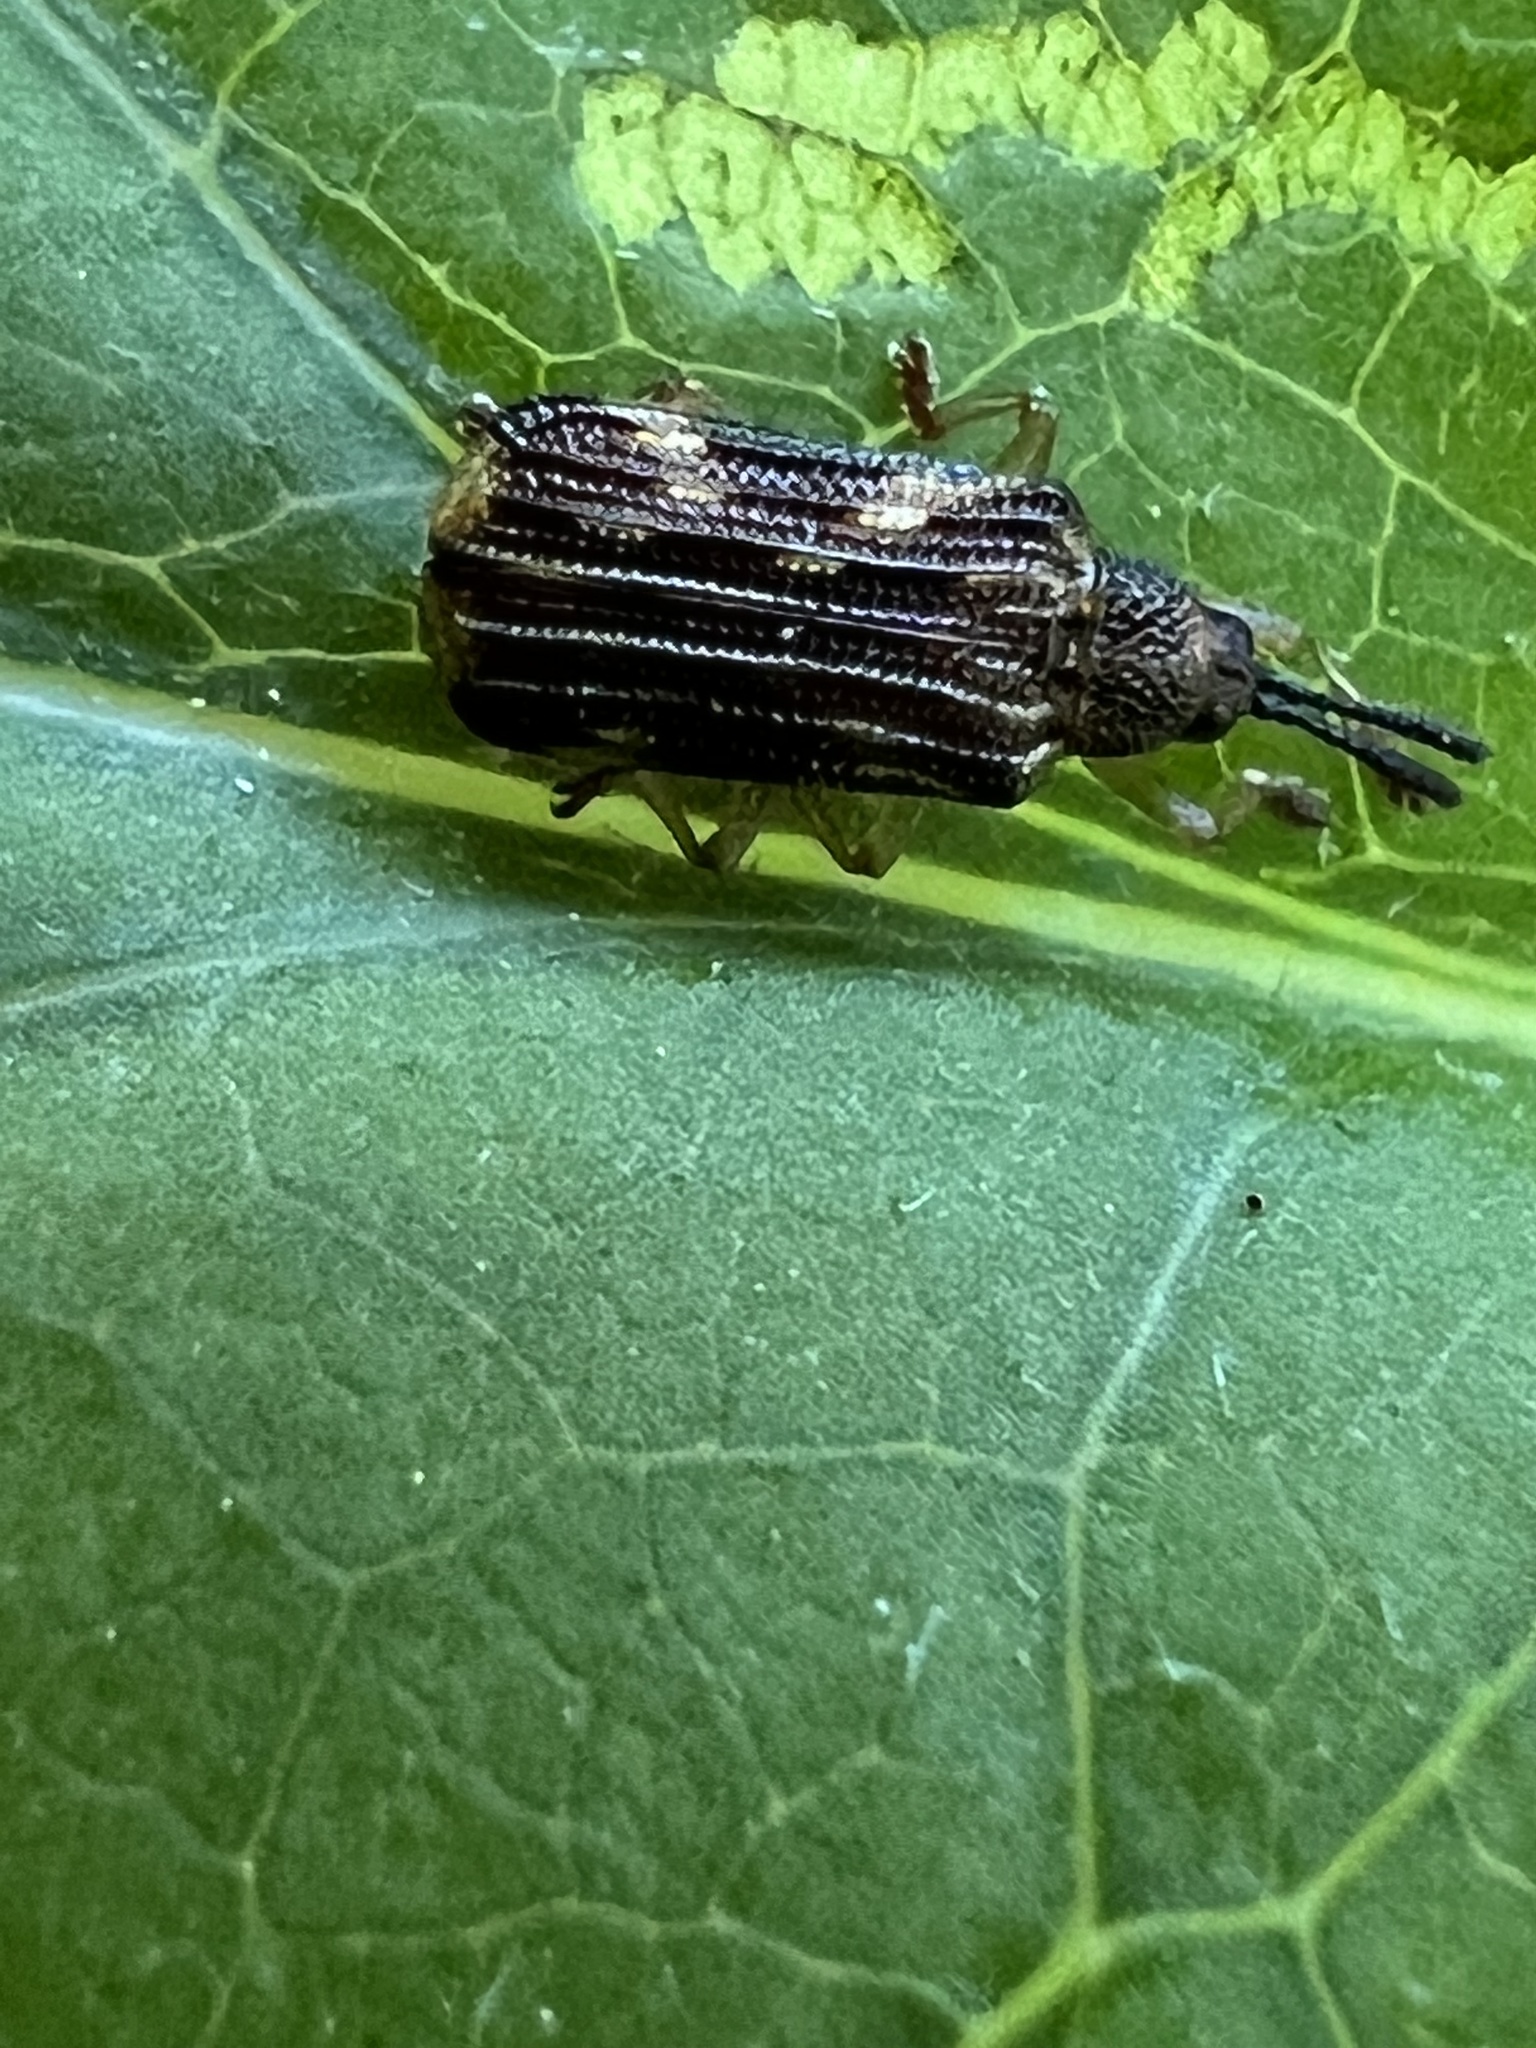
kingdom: Animalia
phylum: Arthropoda
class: Insecta
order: Coleoptera
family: Chrysomelidae
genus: Sumitrosis
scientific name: Sumitrosis inaequalis
